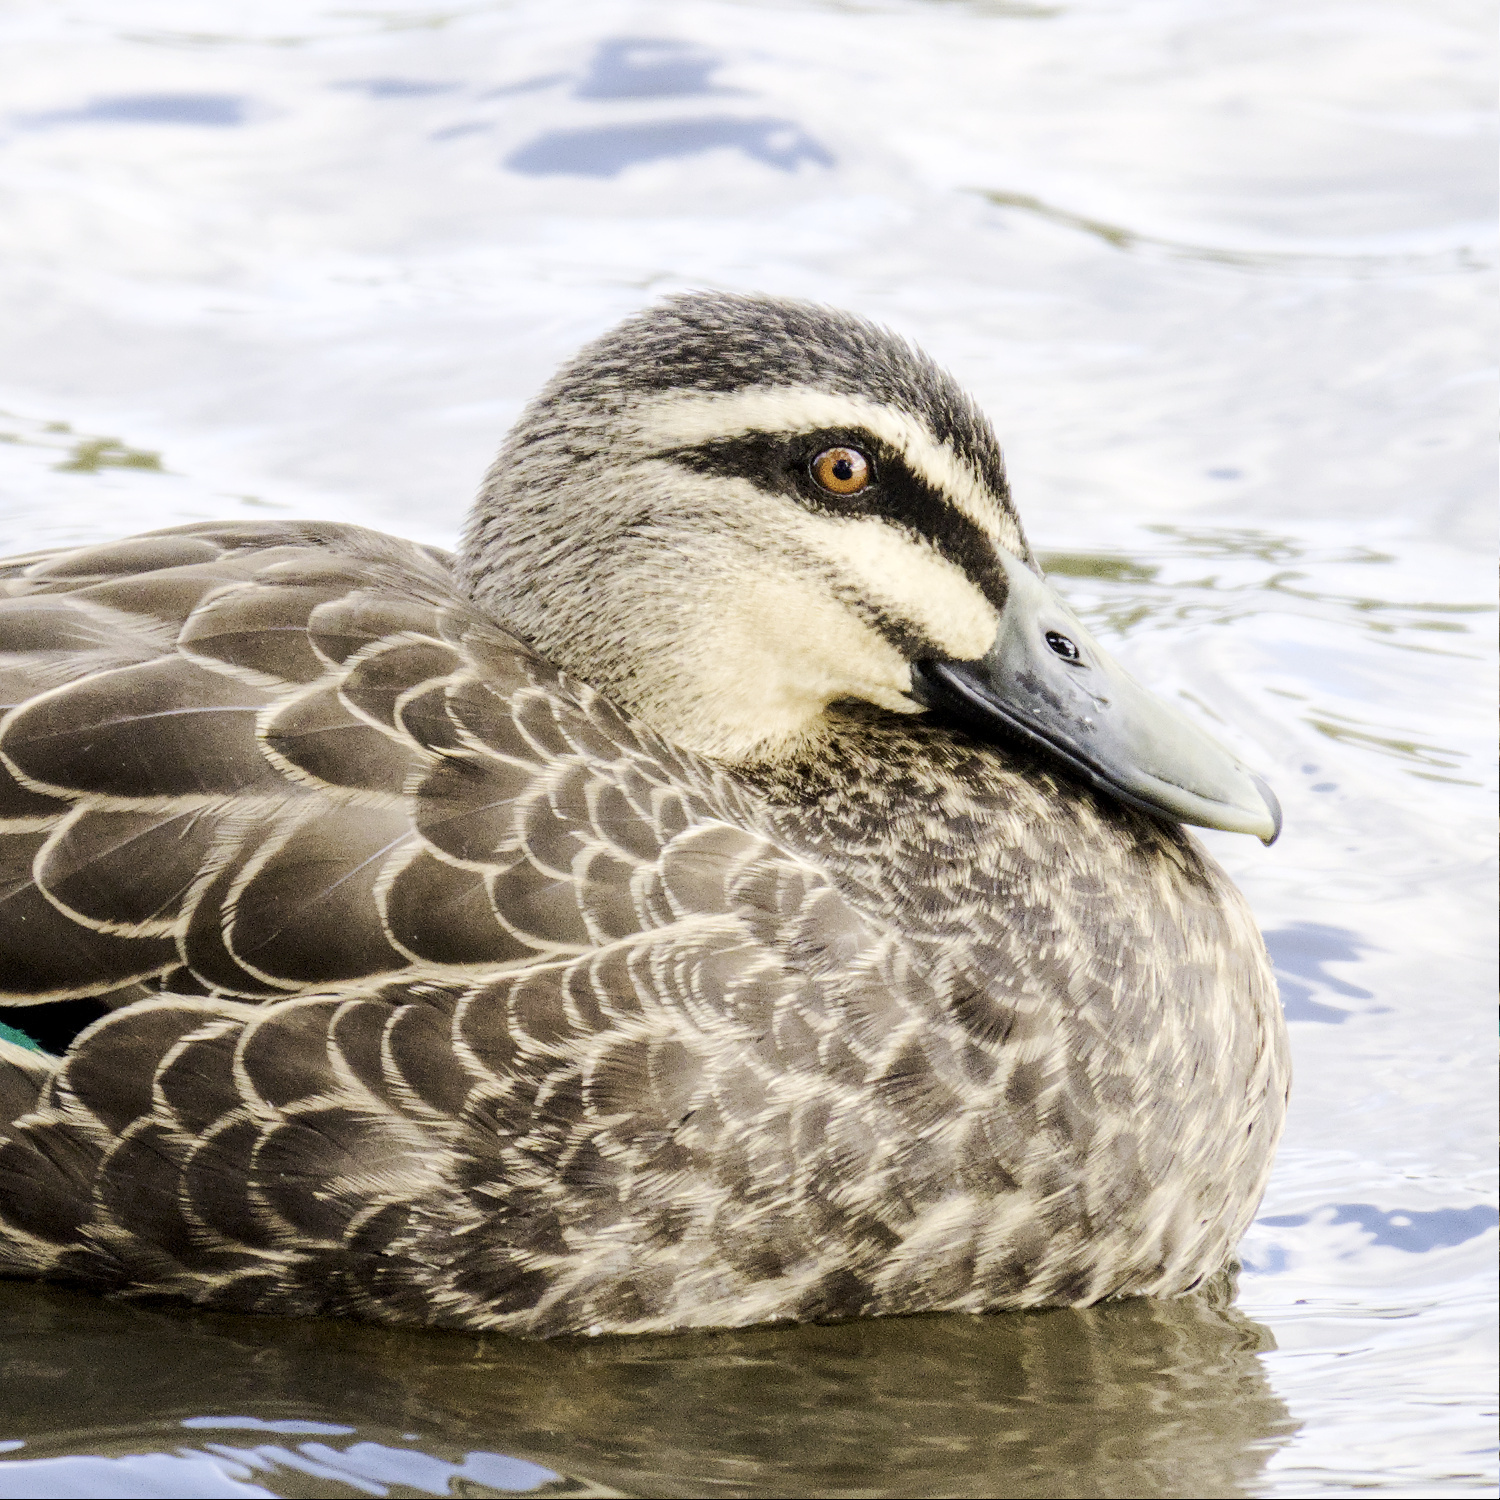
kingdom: Animalia
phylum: Chordata
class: Aves
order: Anseriformes
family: Anatidae
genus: Anas
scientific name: Anas superciliosa
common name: Pacific black duck
